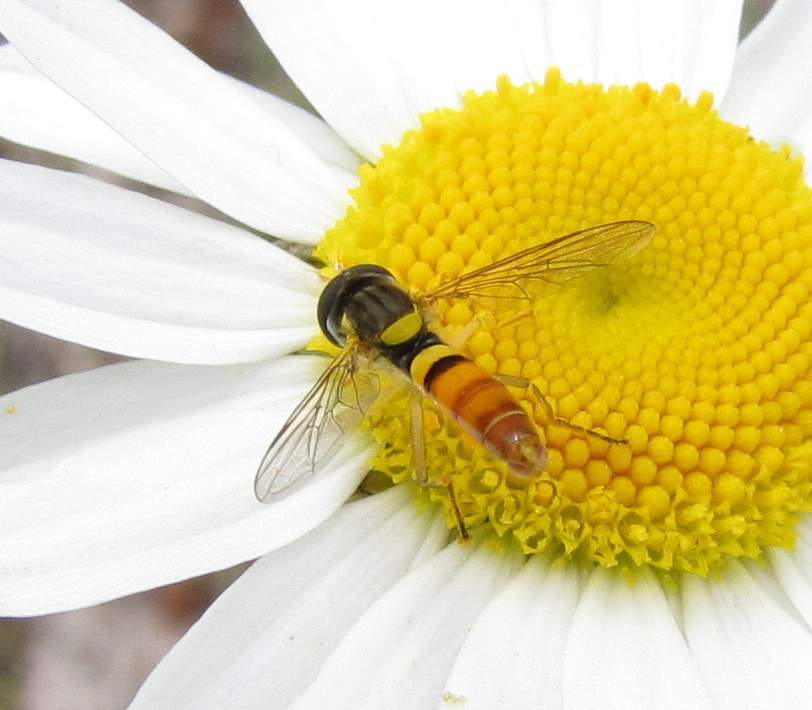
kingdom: Animalia
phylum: Arthropoda
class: Insecta
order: Diptera
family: Syrphidae
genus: Sphaerophoria
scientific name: Sphaerophoria contigua
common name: Tufted globetail
